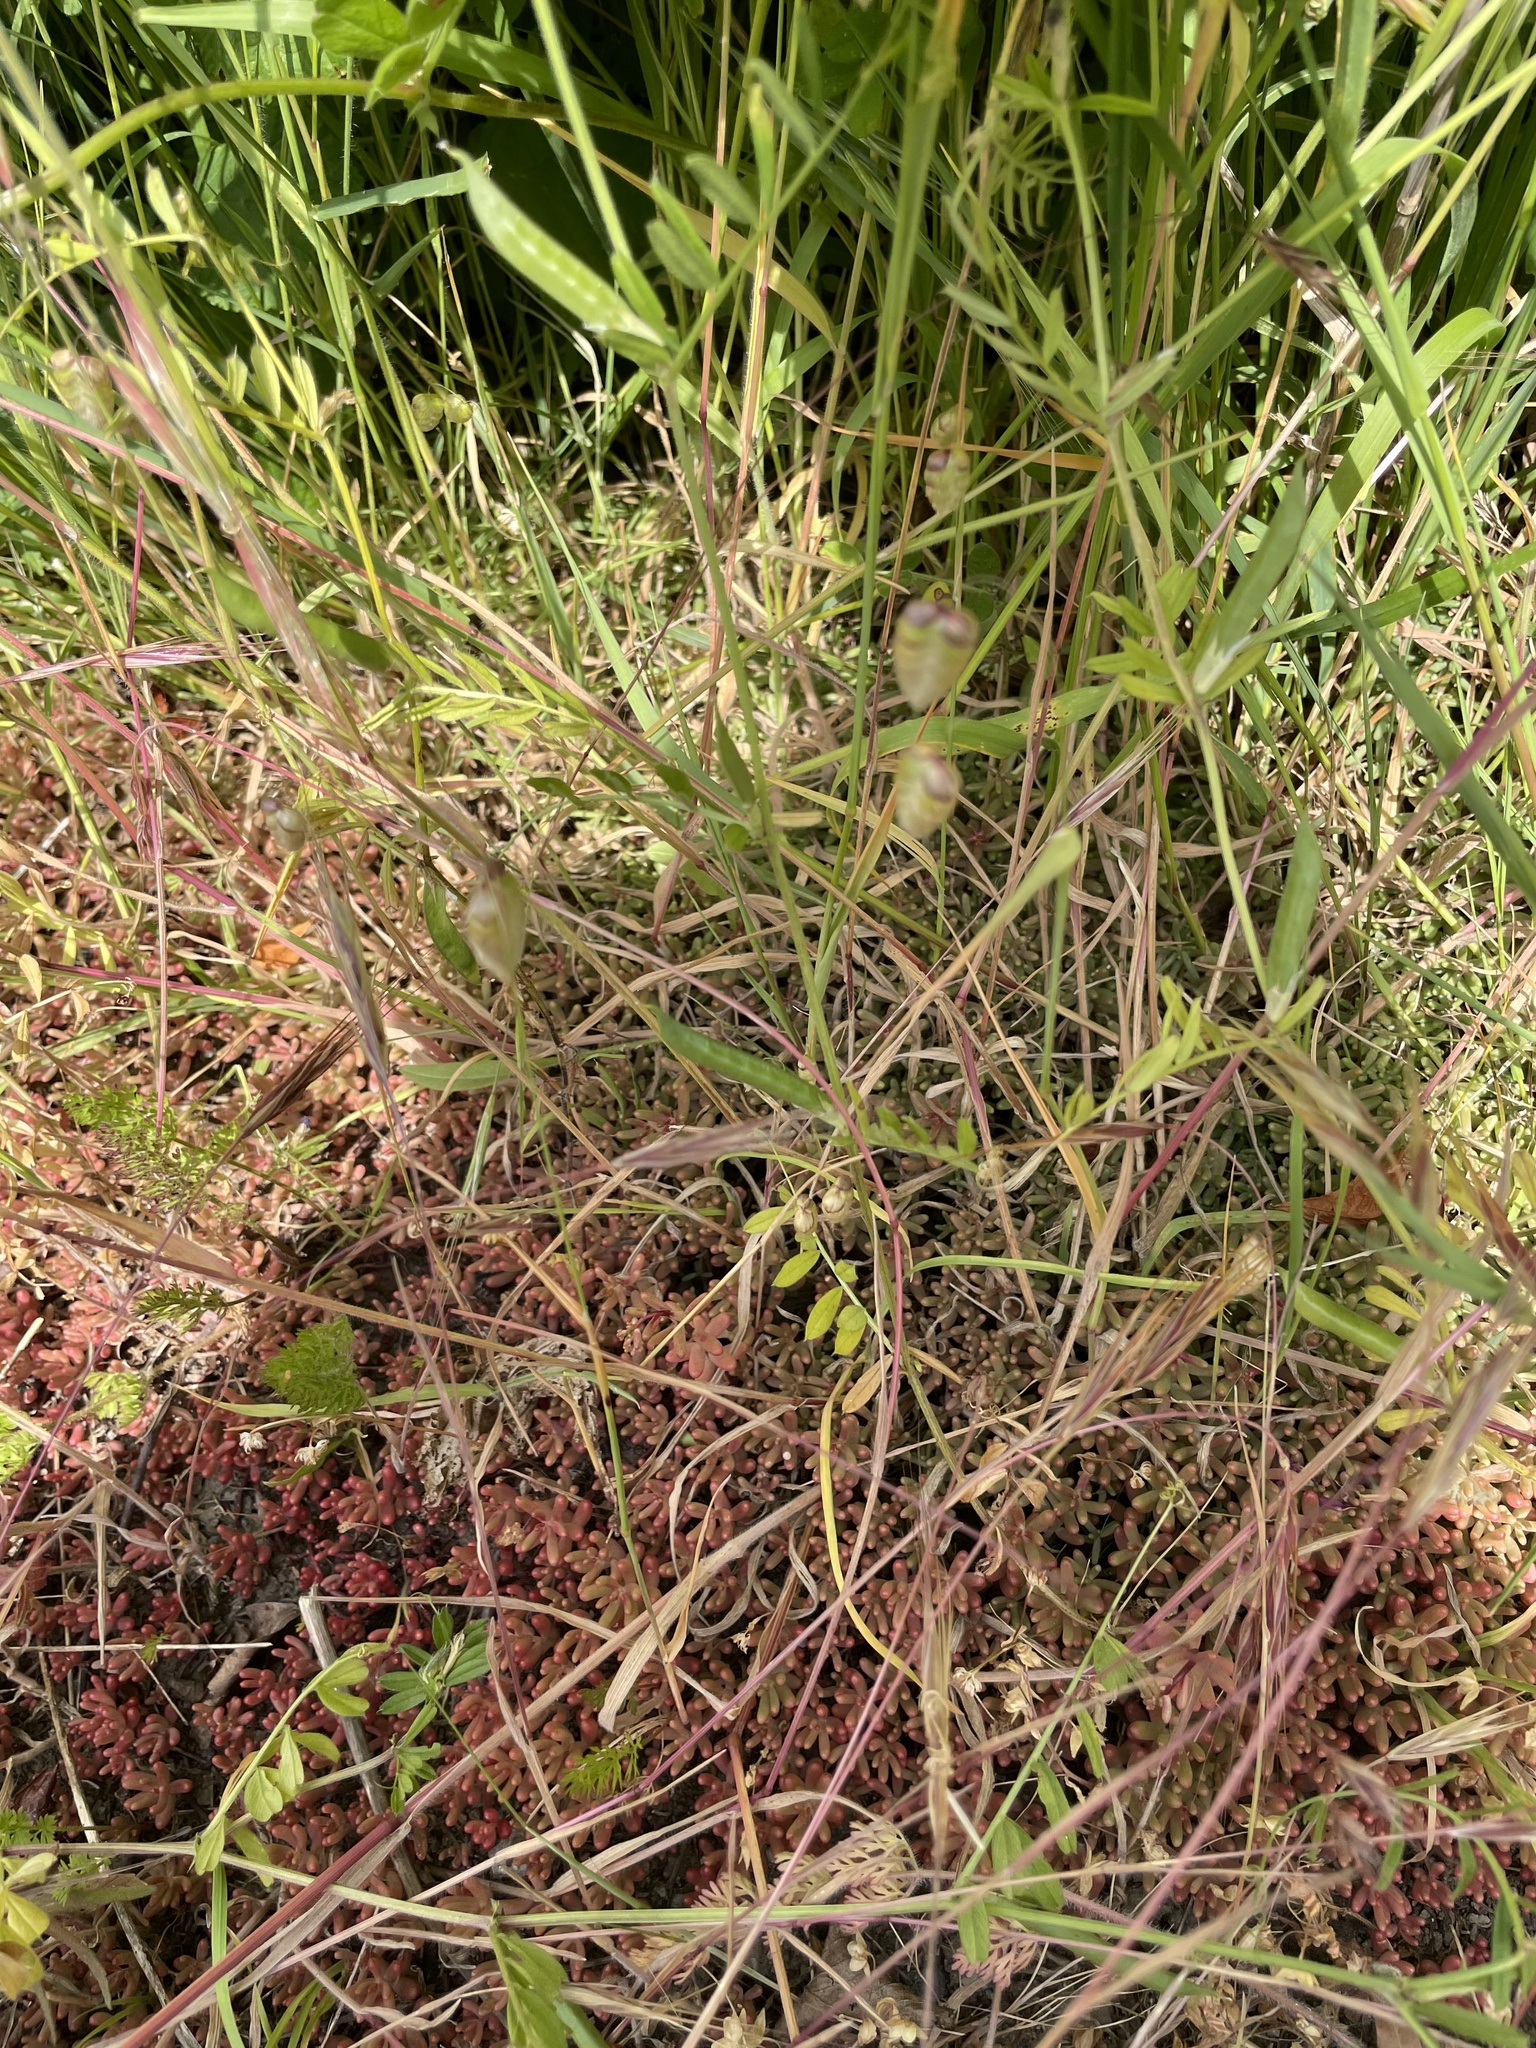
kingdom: Plantae
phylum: Tracheophyta
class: Liliopsida
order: Poales
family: Poaceae
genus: Briza
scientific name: Briza maxima
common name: Big quakinggrass
